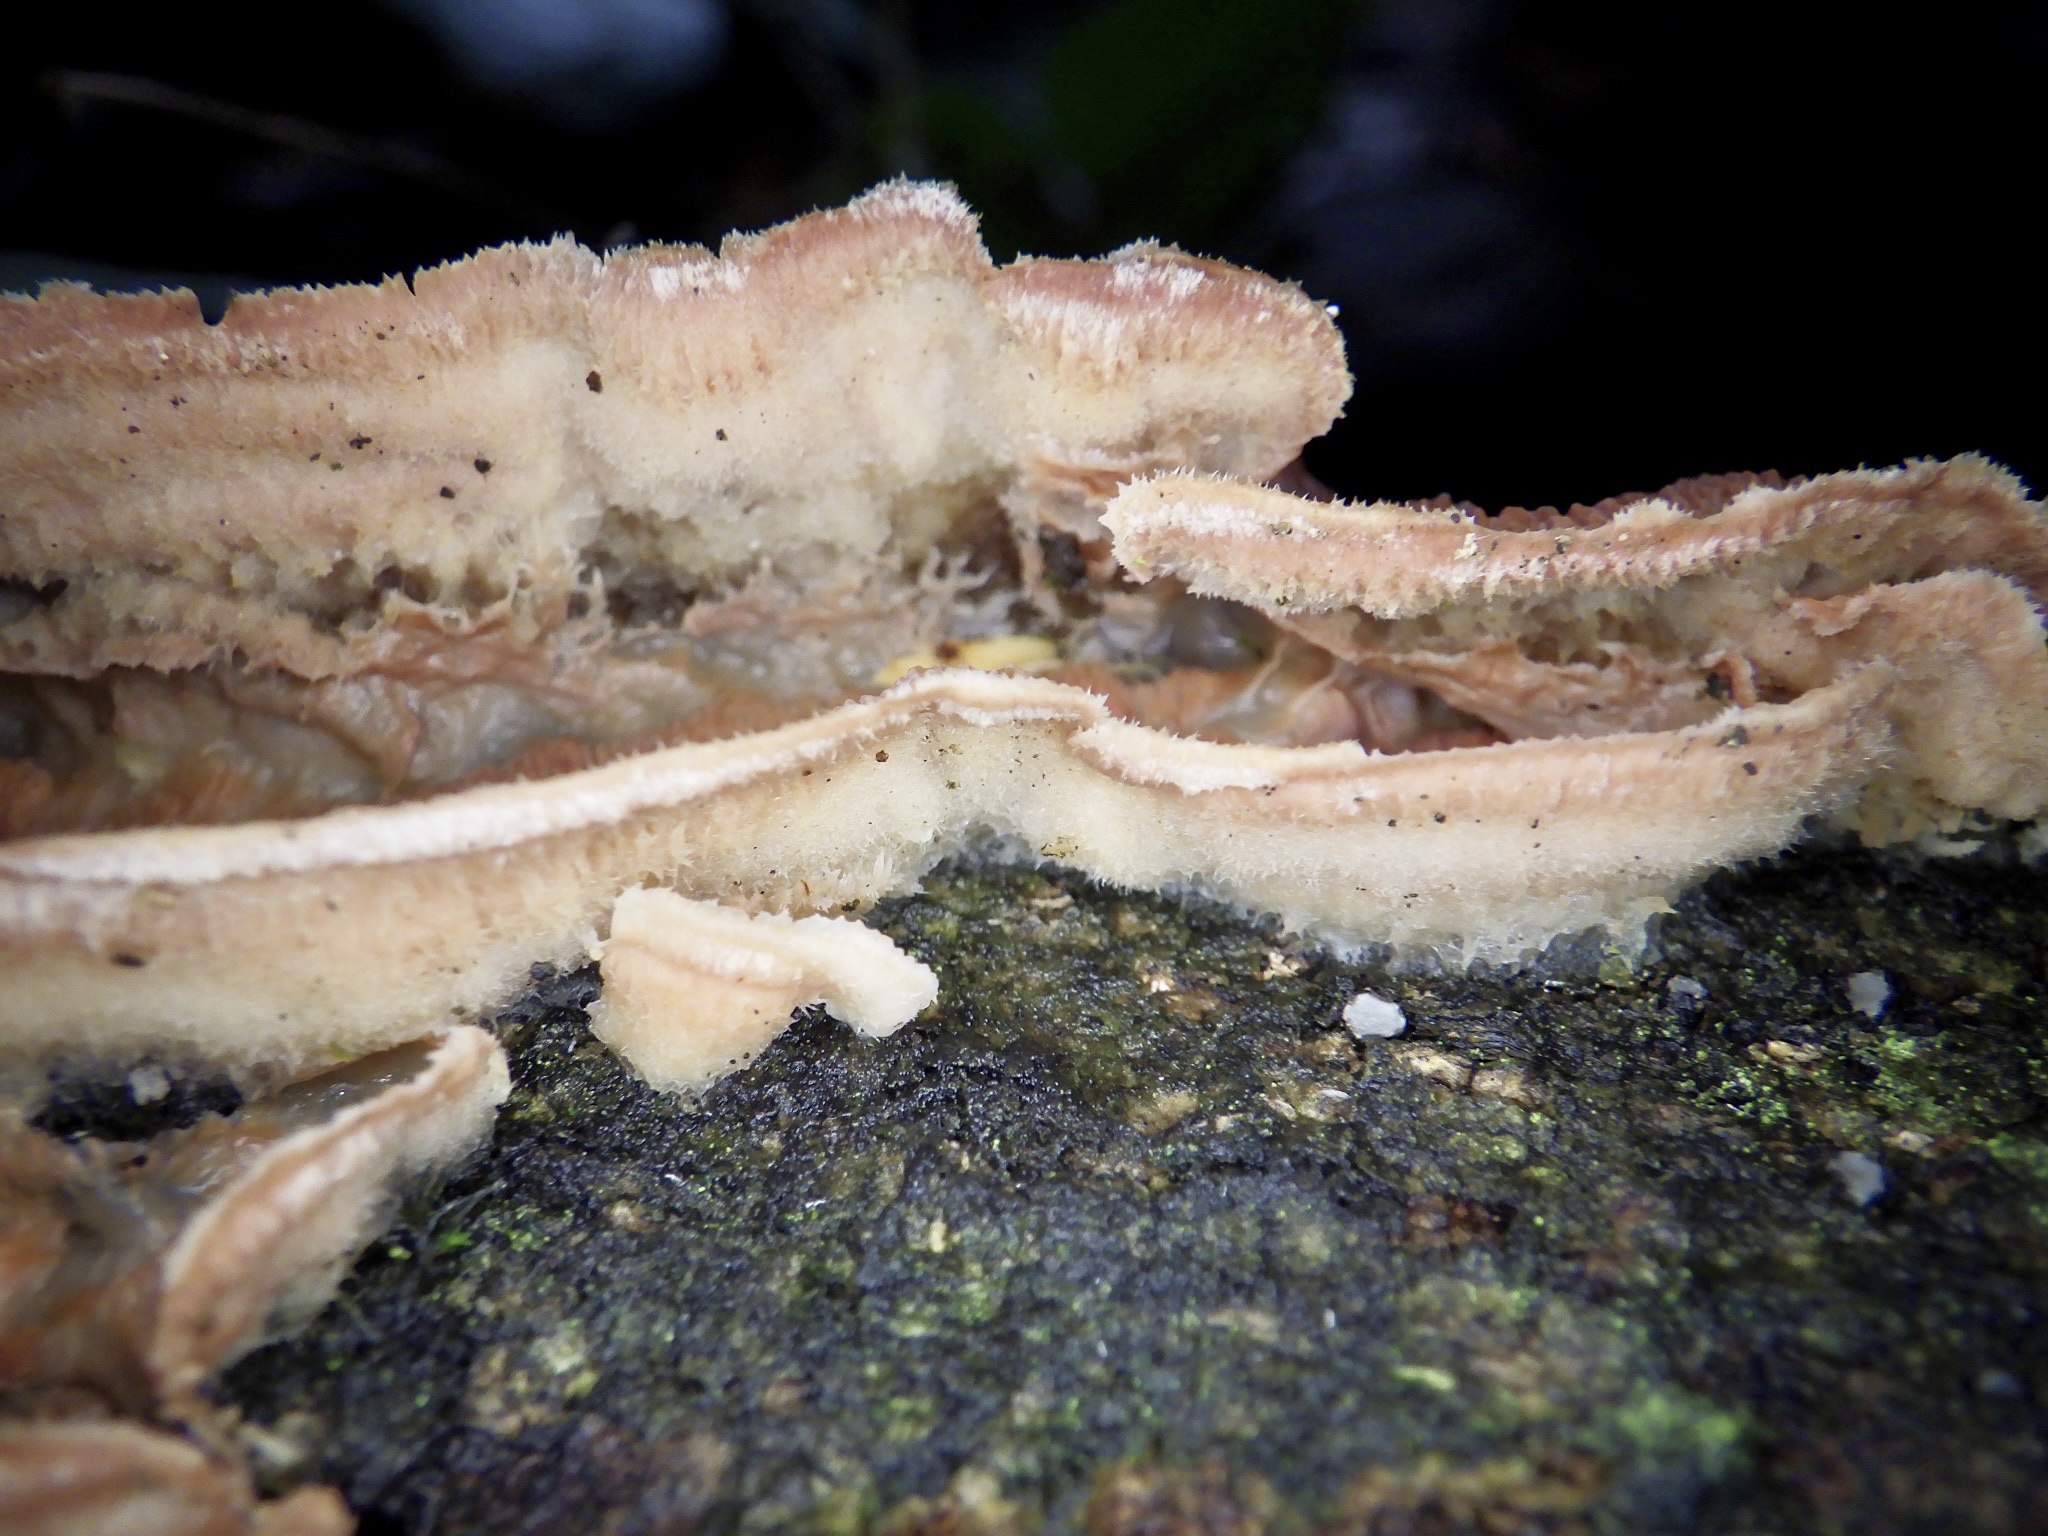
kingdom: Fungi
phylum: Basidiomycota
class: Agaricomycetes
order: Polyporales
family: Meruliaceae
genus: Phlebia
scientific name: Phlebia tremellosa
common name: Jelly rot
